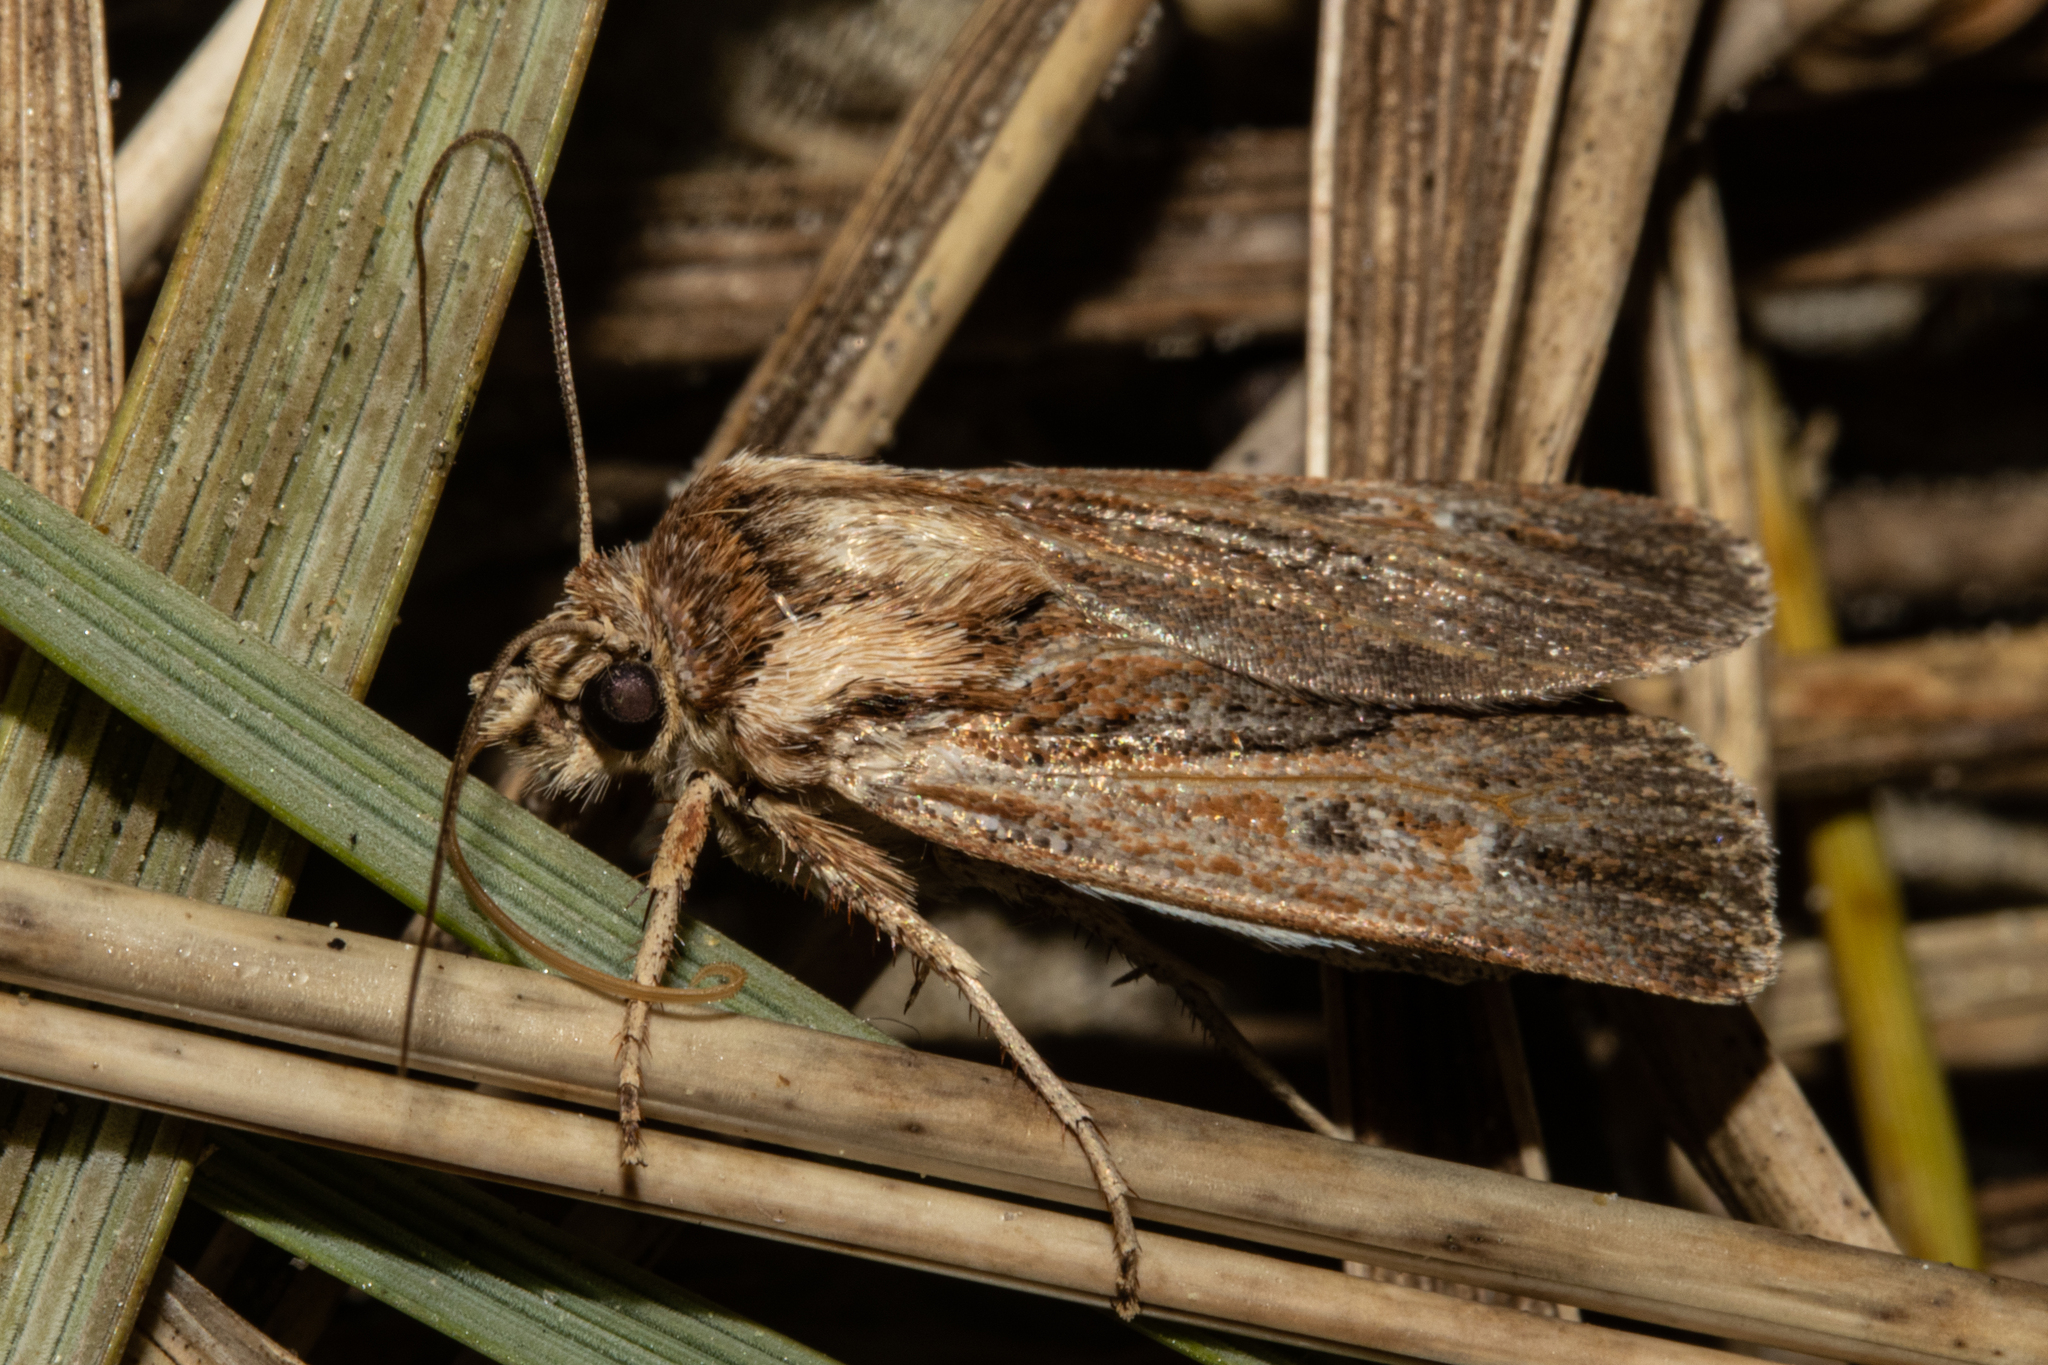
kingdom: Animalia
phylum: Arthropoda
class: Insecta
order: Lepidoptera
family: Noctuidae
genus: Agrotis
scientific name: Agrotis innominata
